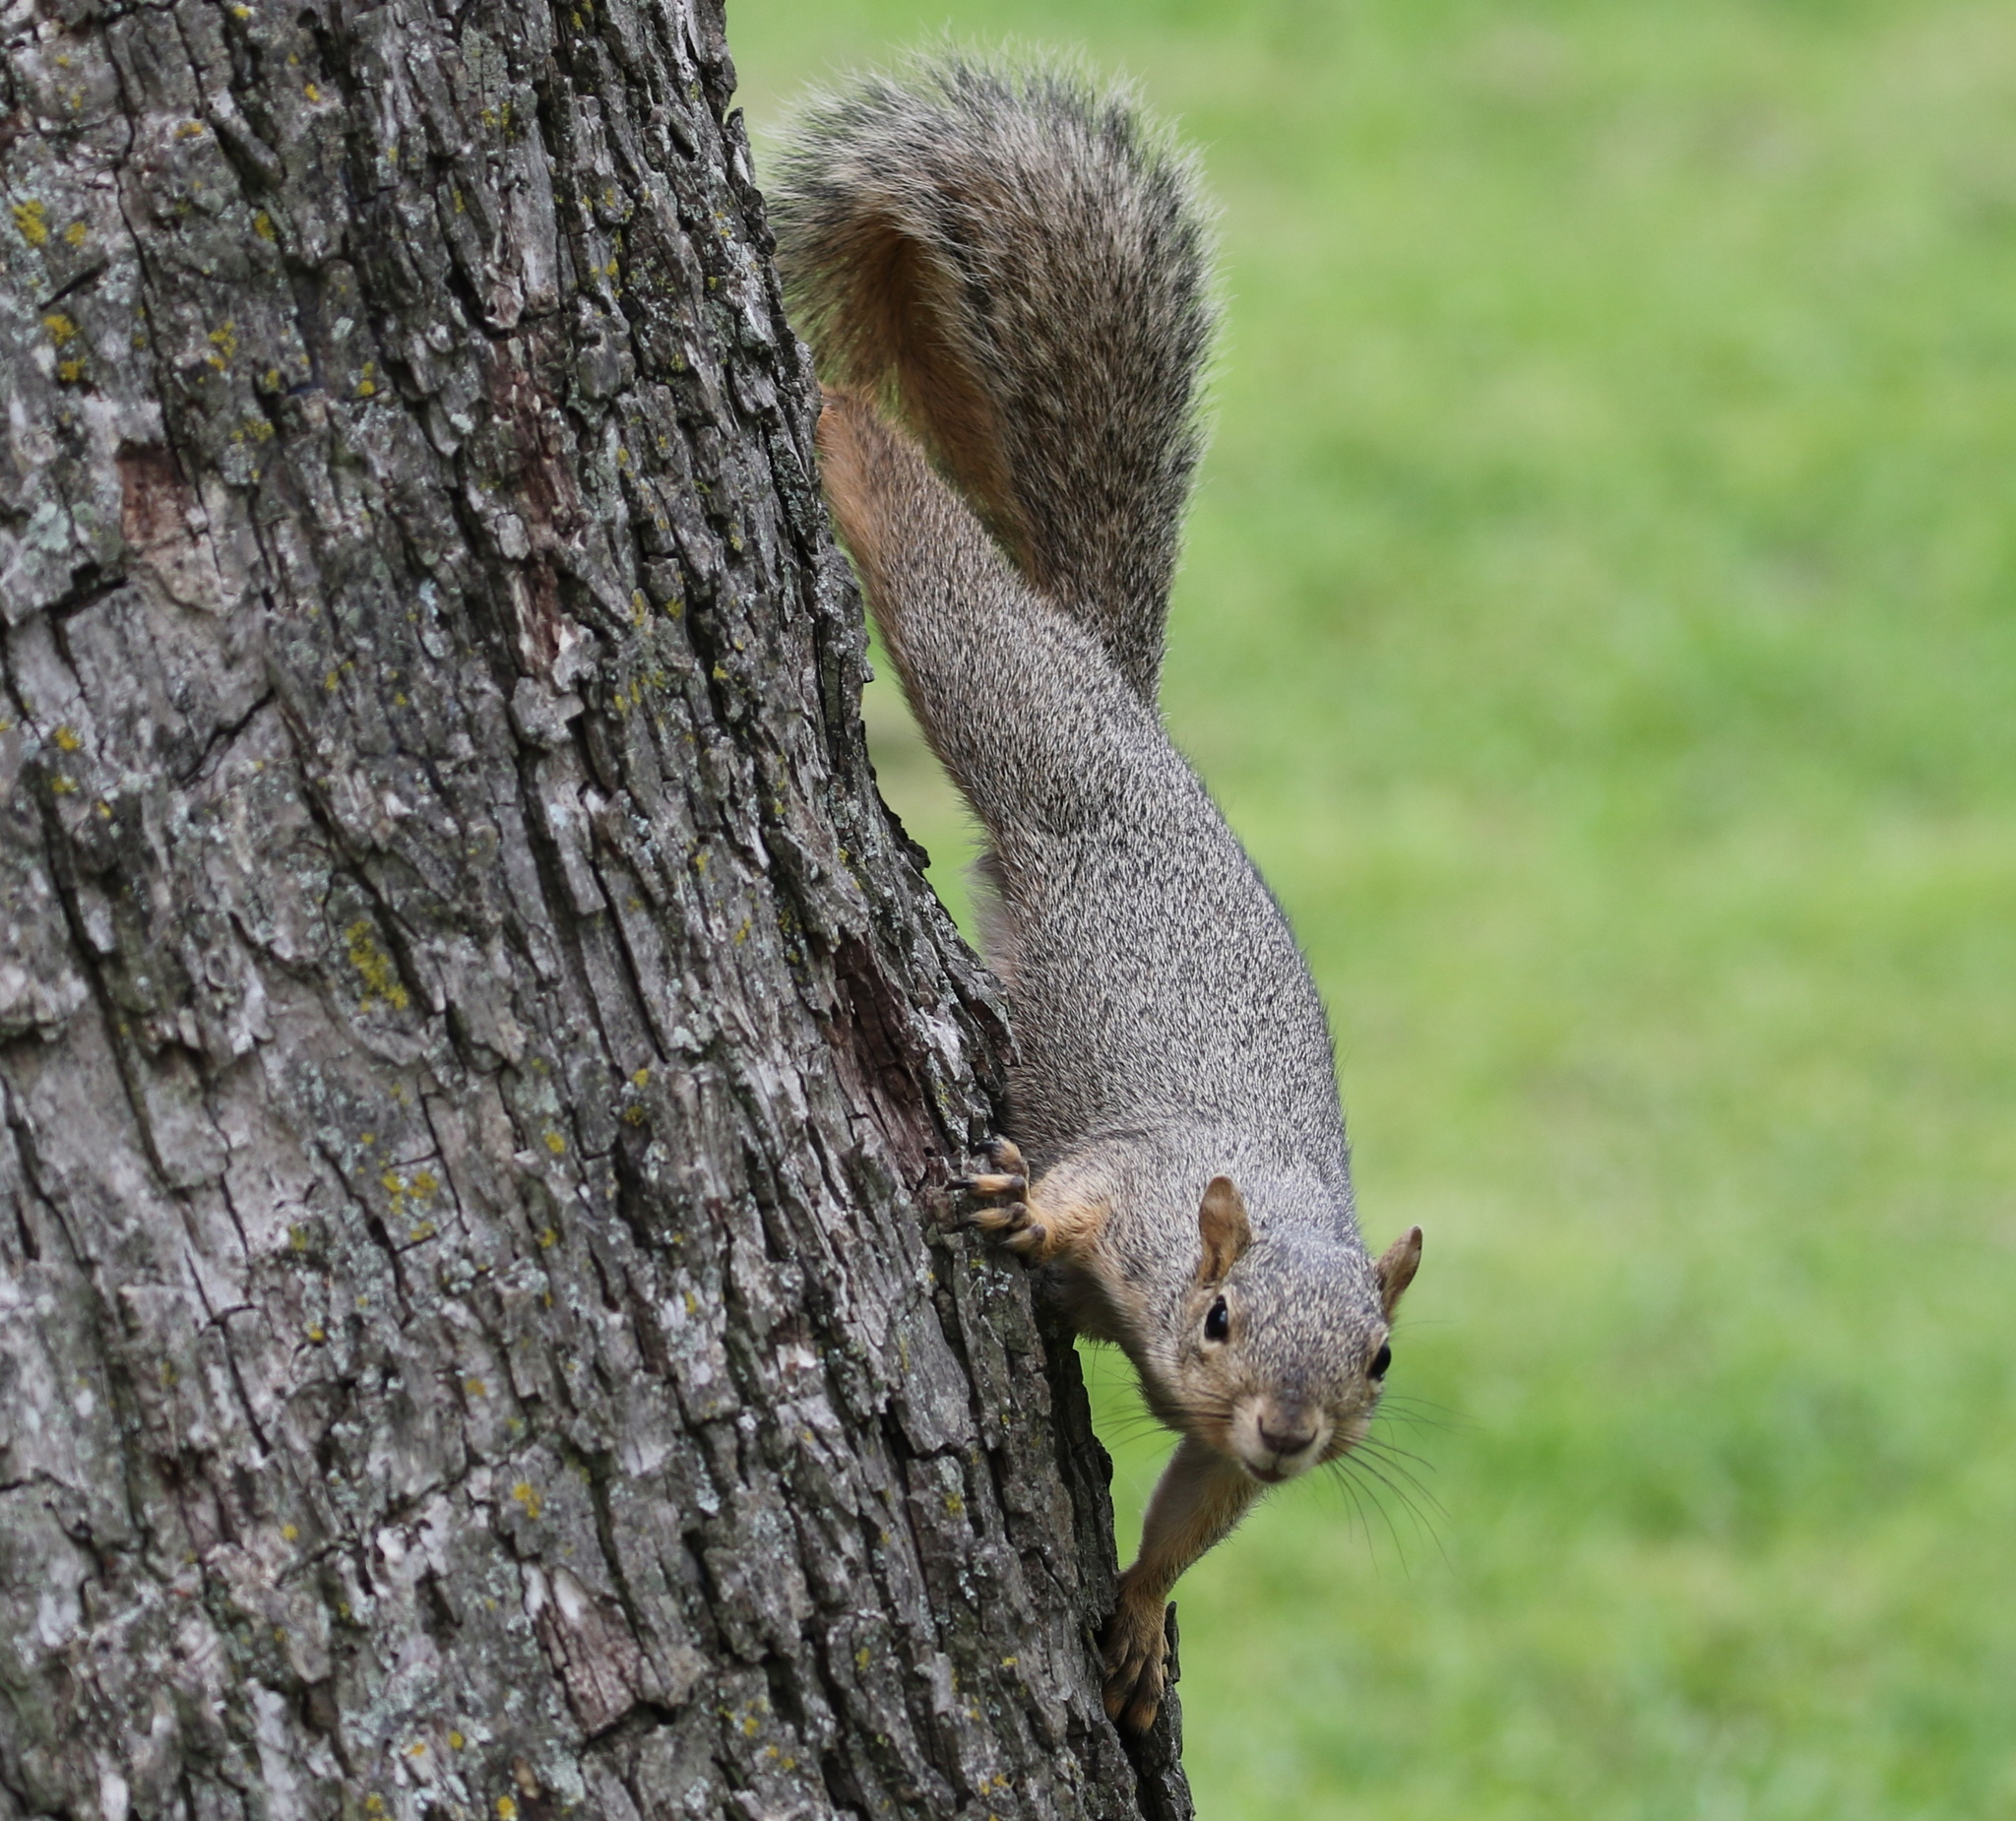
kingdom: Animalia
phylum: Chordata
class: Mammalia
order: Rodentia
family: Sciuridae
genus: Sciurus
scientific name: Sciurus niger
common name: Fox squirrel
